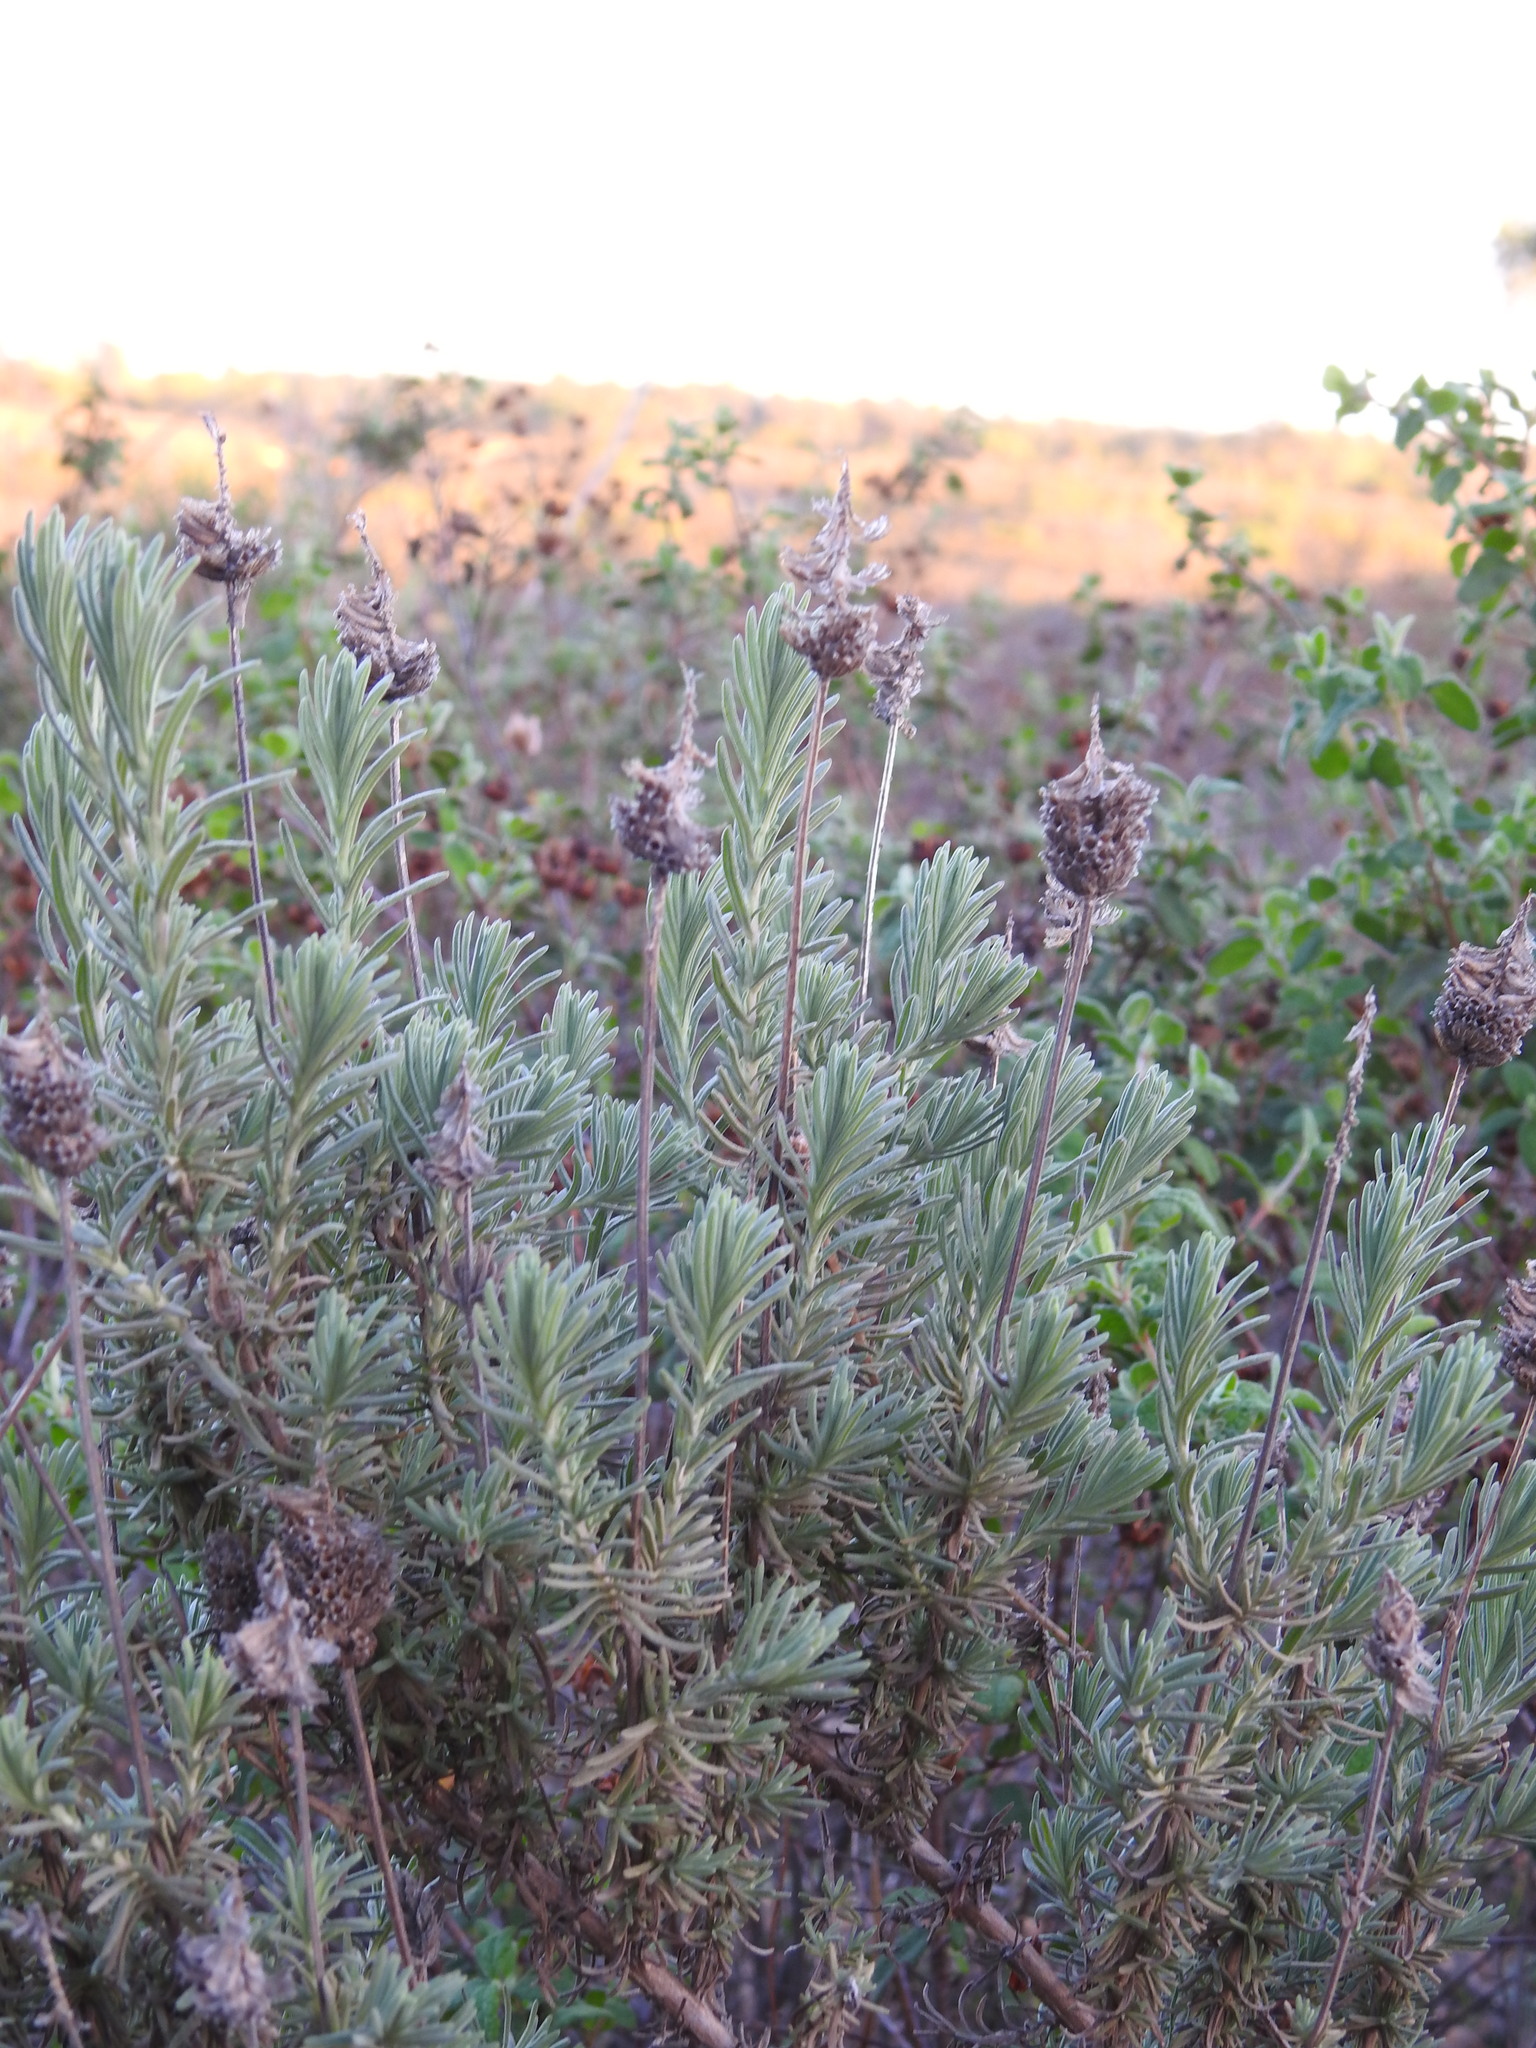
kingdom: Plantae
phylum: Tracheophyta
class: Magnoliopsida
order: Lamiales
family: Lamiaceae
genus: Lavandula
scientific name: Lavandula pedunculata
